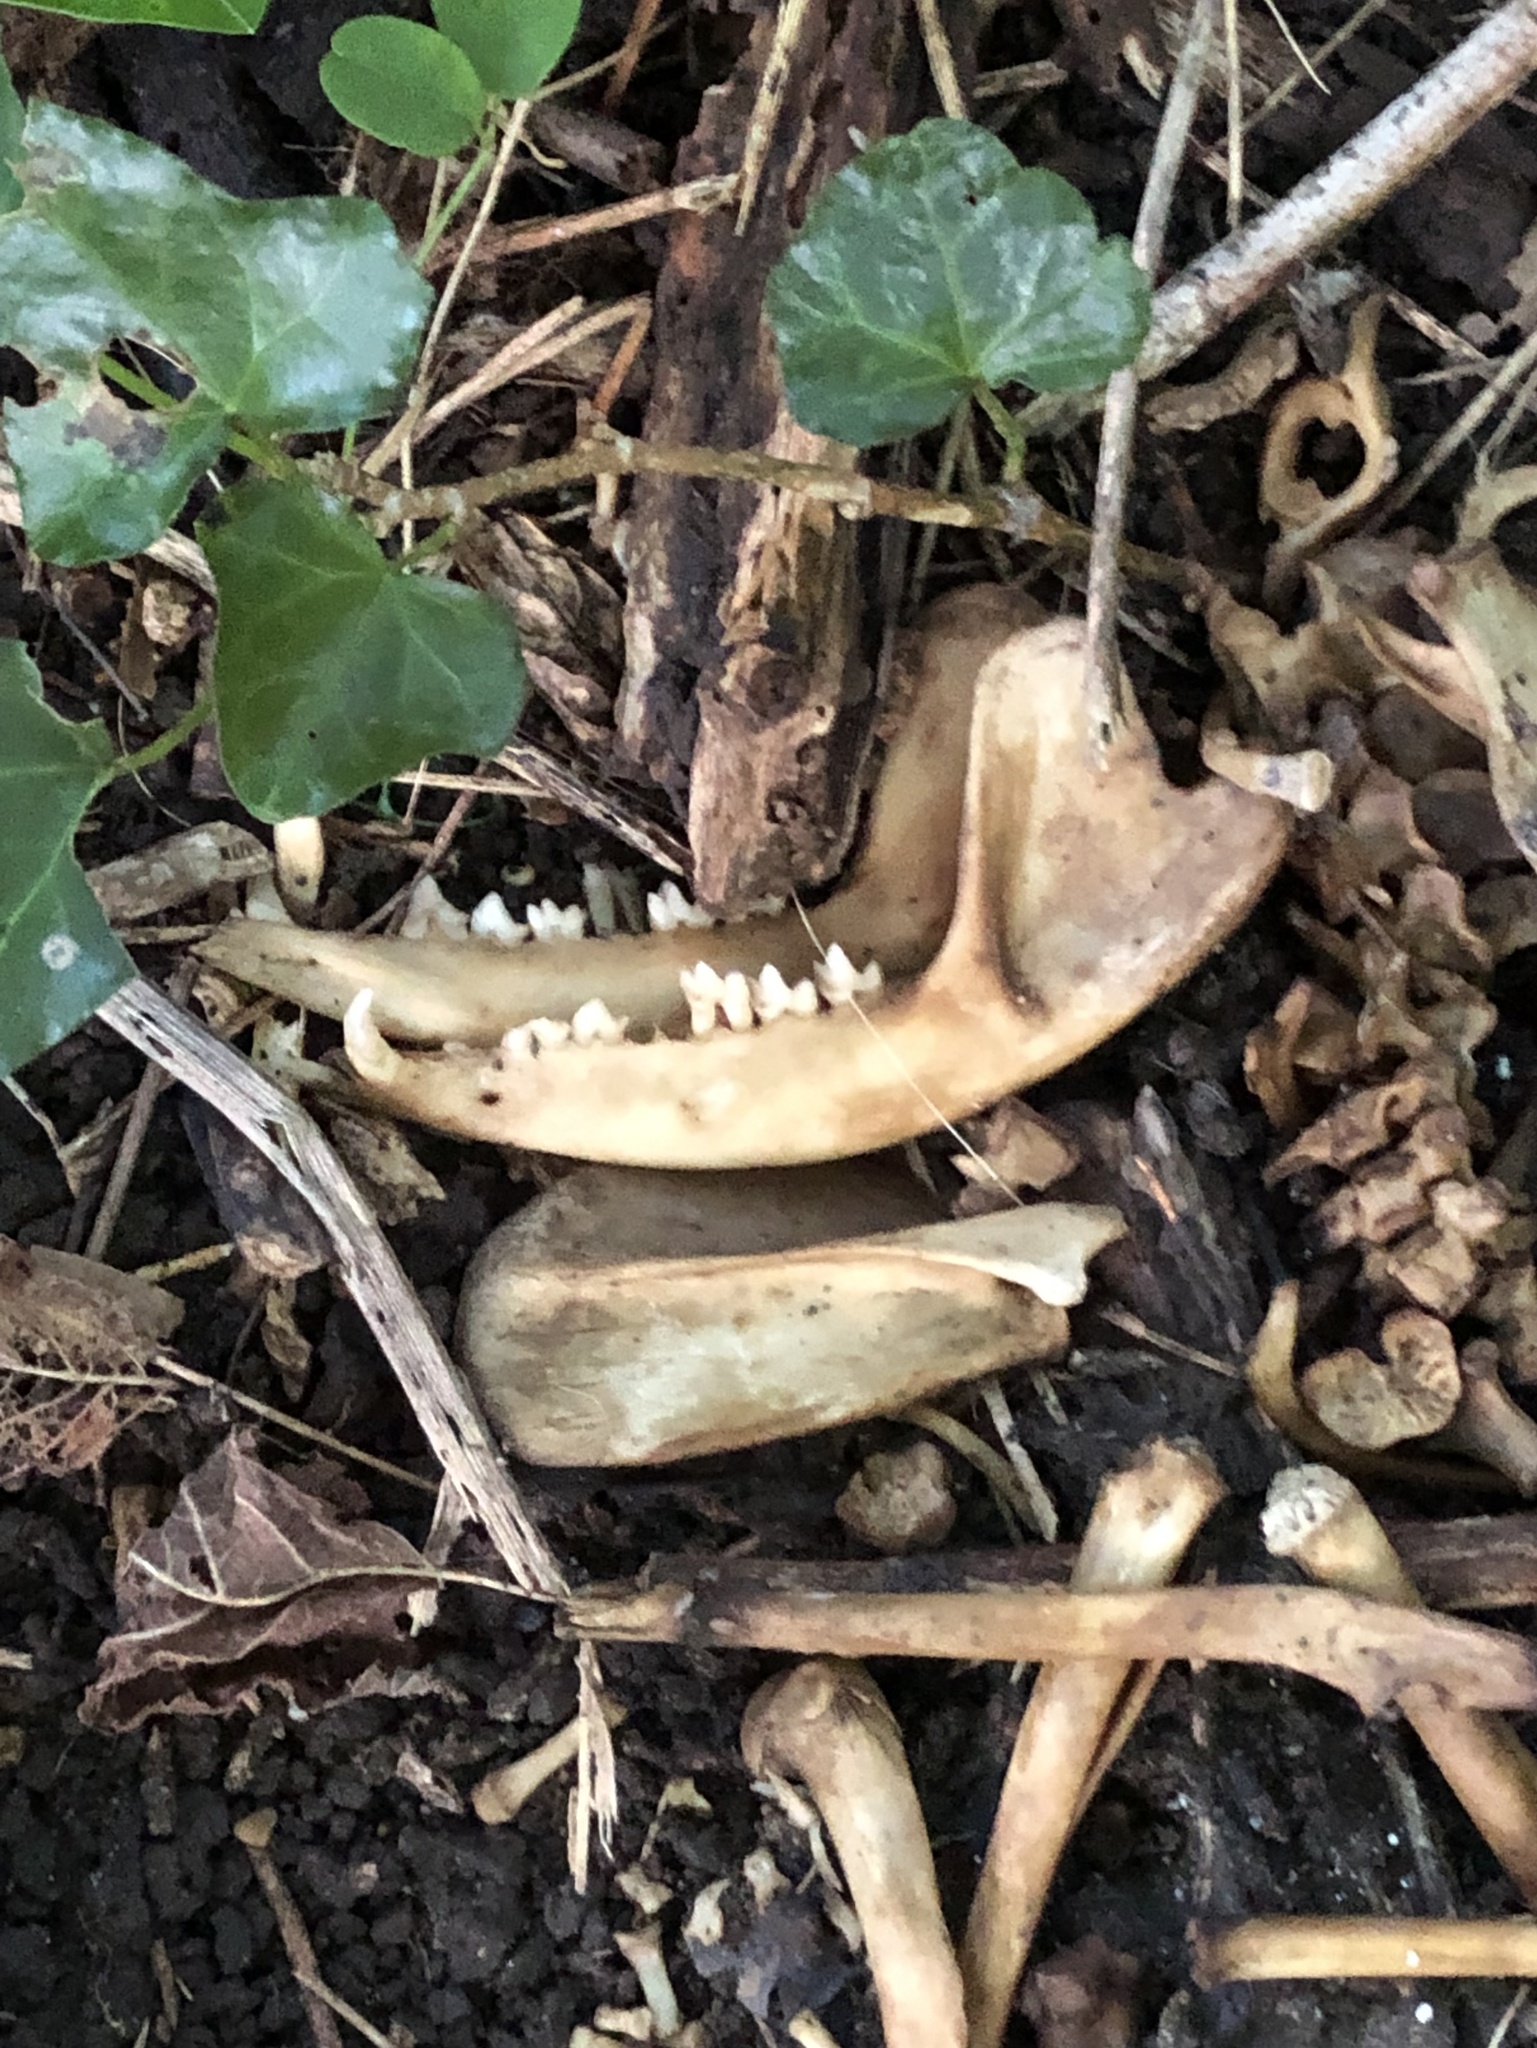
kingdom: Animalia
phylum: Chordata
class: Mammalia
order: Didelphimorphia
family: Didelphidae
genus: Didelphis
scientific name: Didelphis virginiana
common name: Virginia opossum
